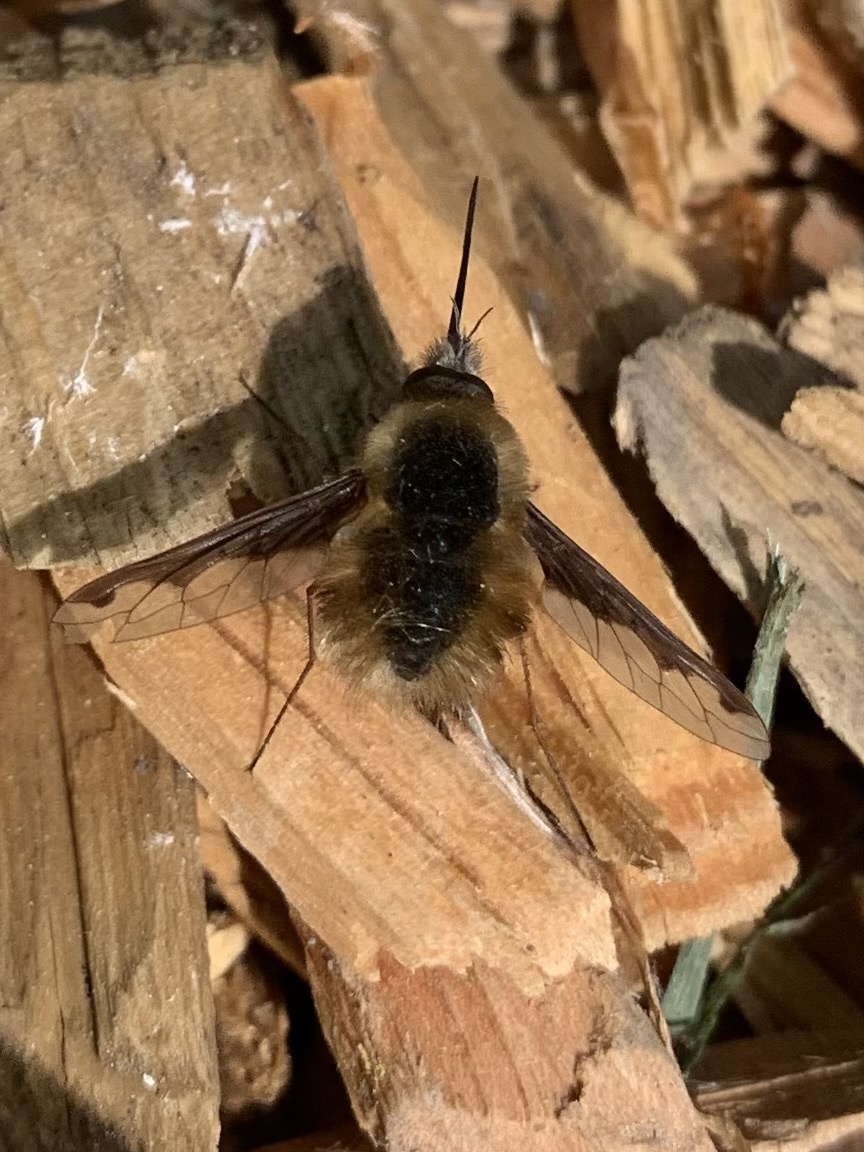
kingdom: Animalia
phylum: Arthropoda
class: Insecta
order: Diptera
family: Bombyliidae
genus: Bombylius
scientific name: Bombylius major
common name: Bee fly
